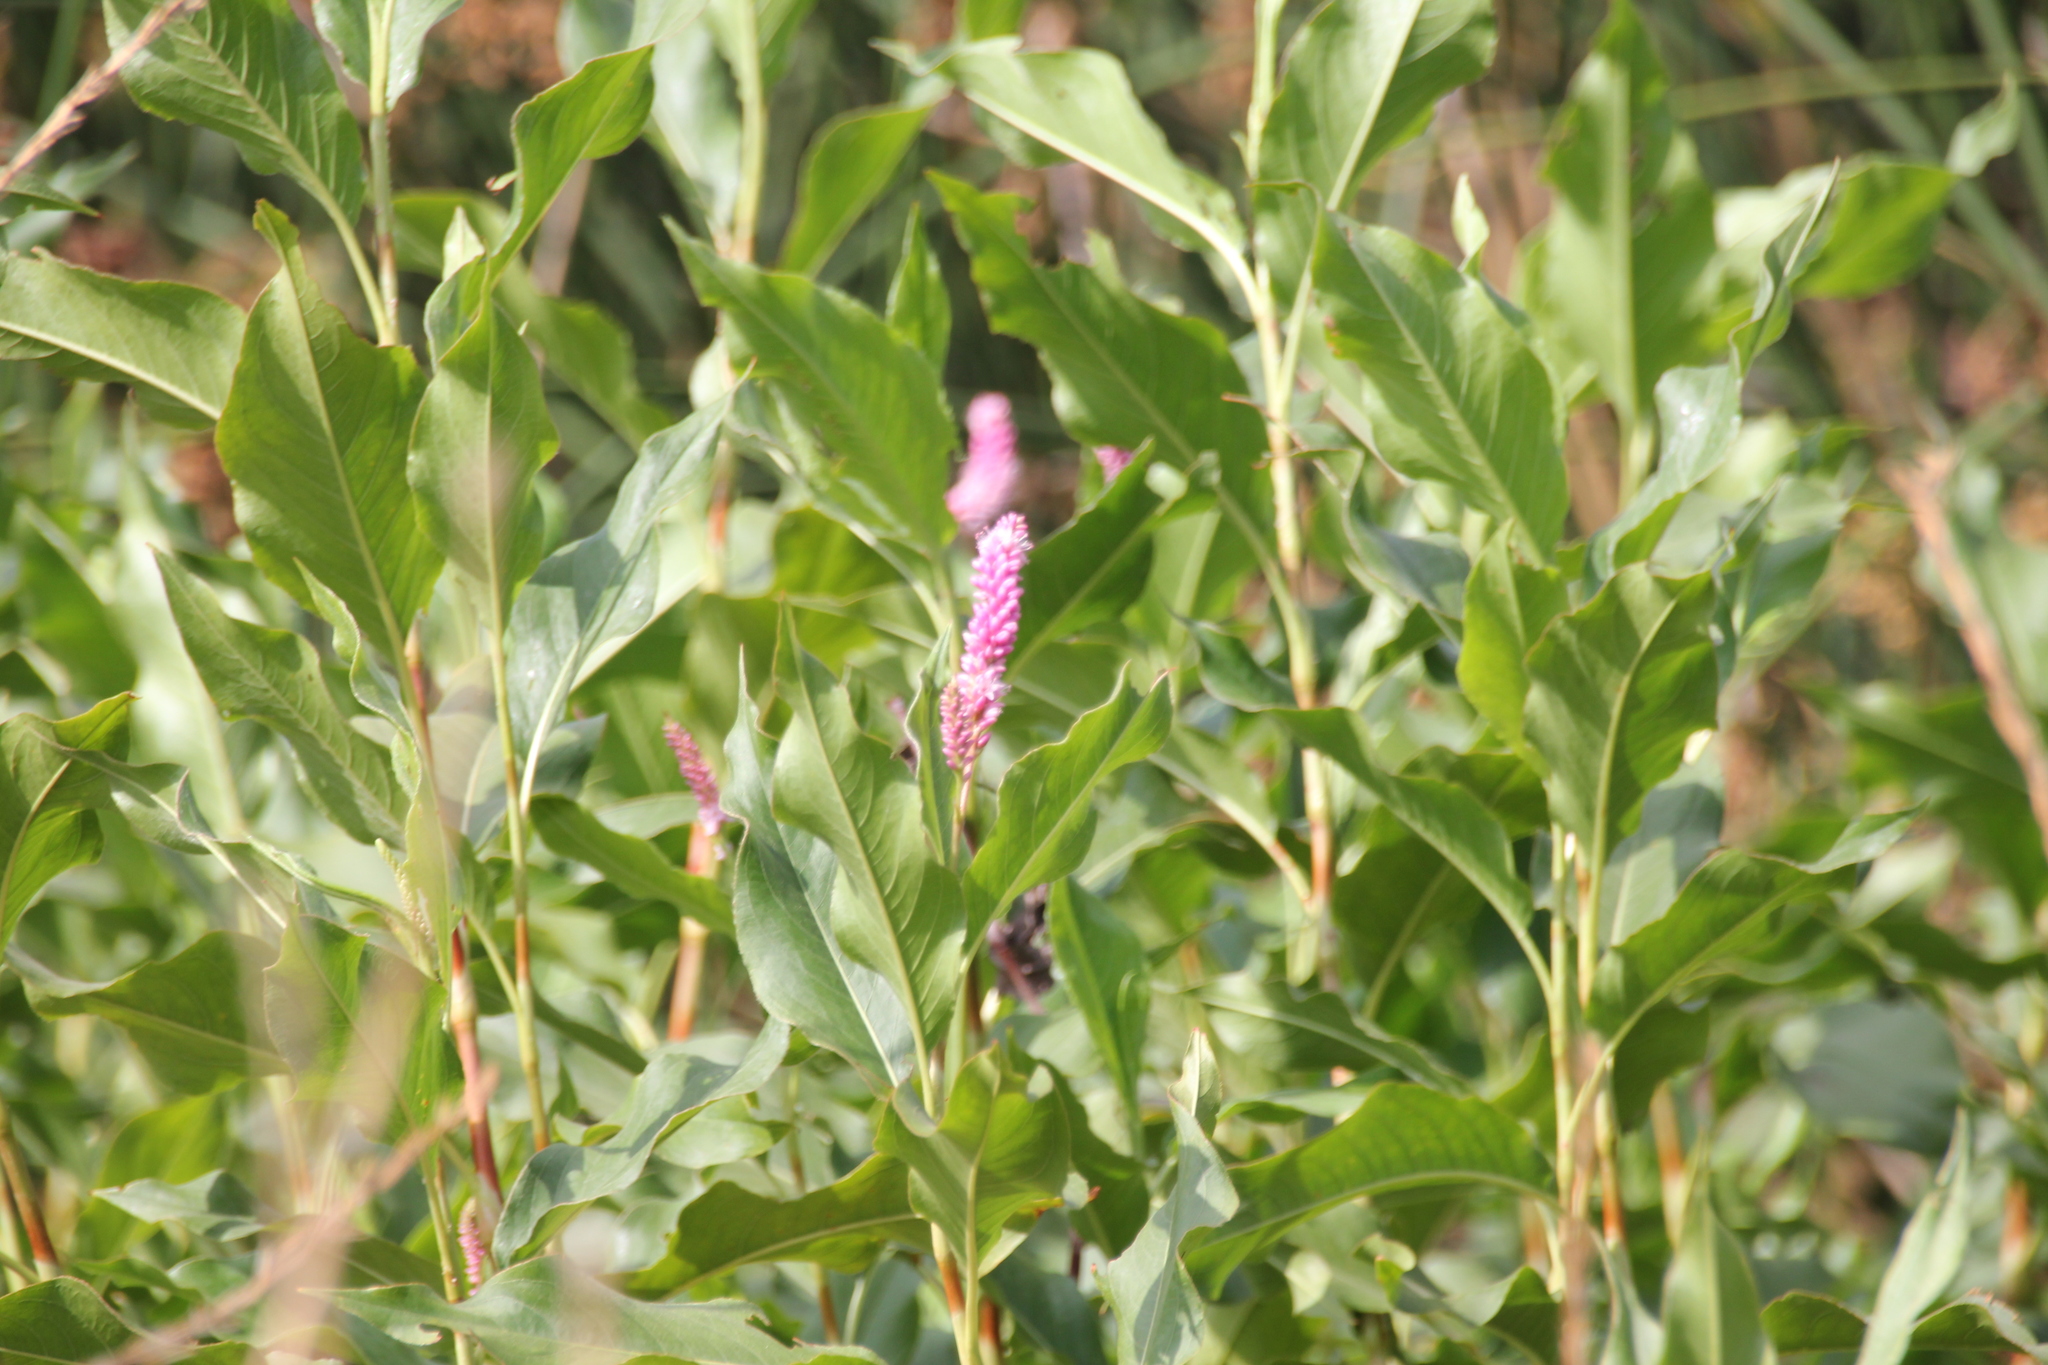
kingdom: Plantae
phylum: Tracheophyta
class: Magnoliopsida
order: Caryophyllales
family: Polygonaceae
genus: Persicaria
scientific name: Persicaria amphibia
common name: Amphibious bistort
